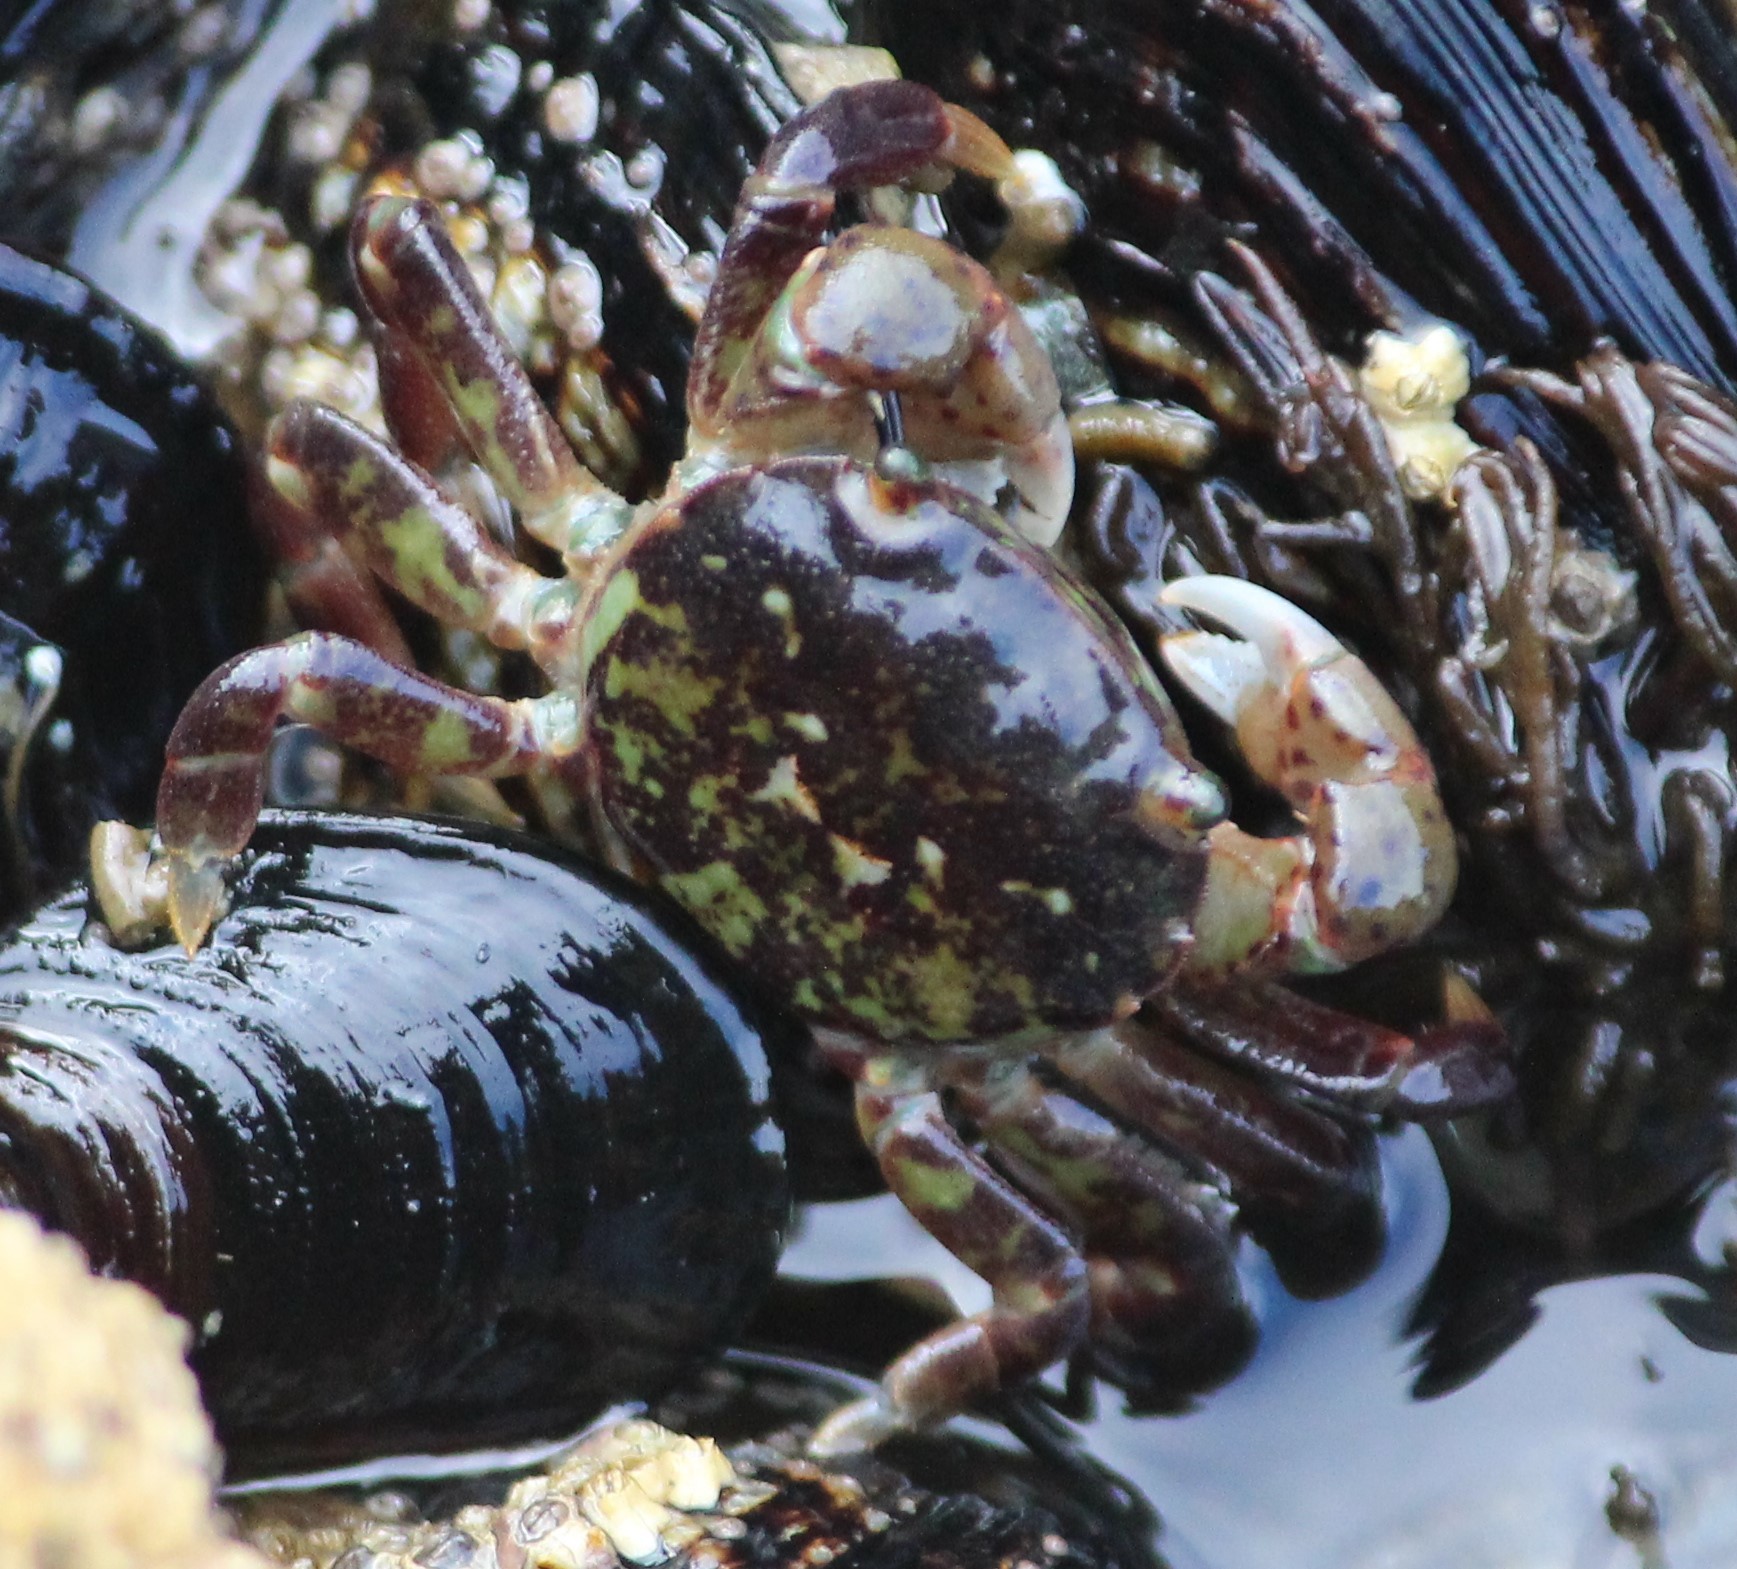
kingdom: Animalia
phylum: Arthropoda
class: Malacostraca
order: Decapoda
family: Varunidae
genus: Hemigrapsus
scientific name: Hemigrapsus nudus
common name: Purple shore crab
